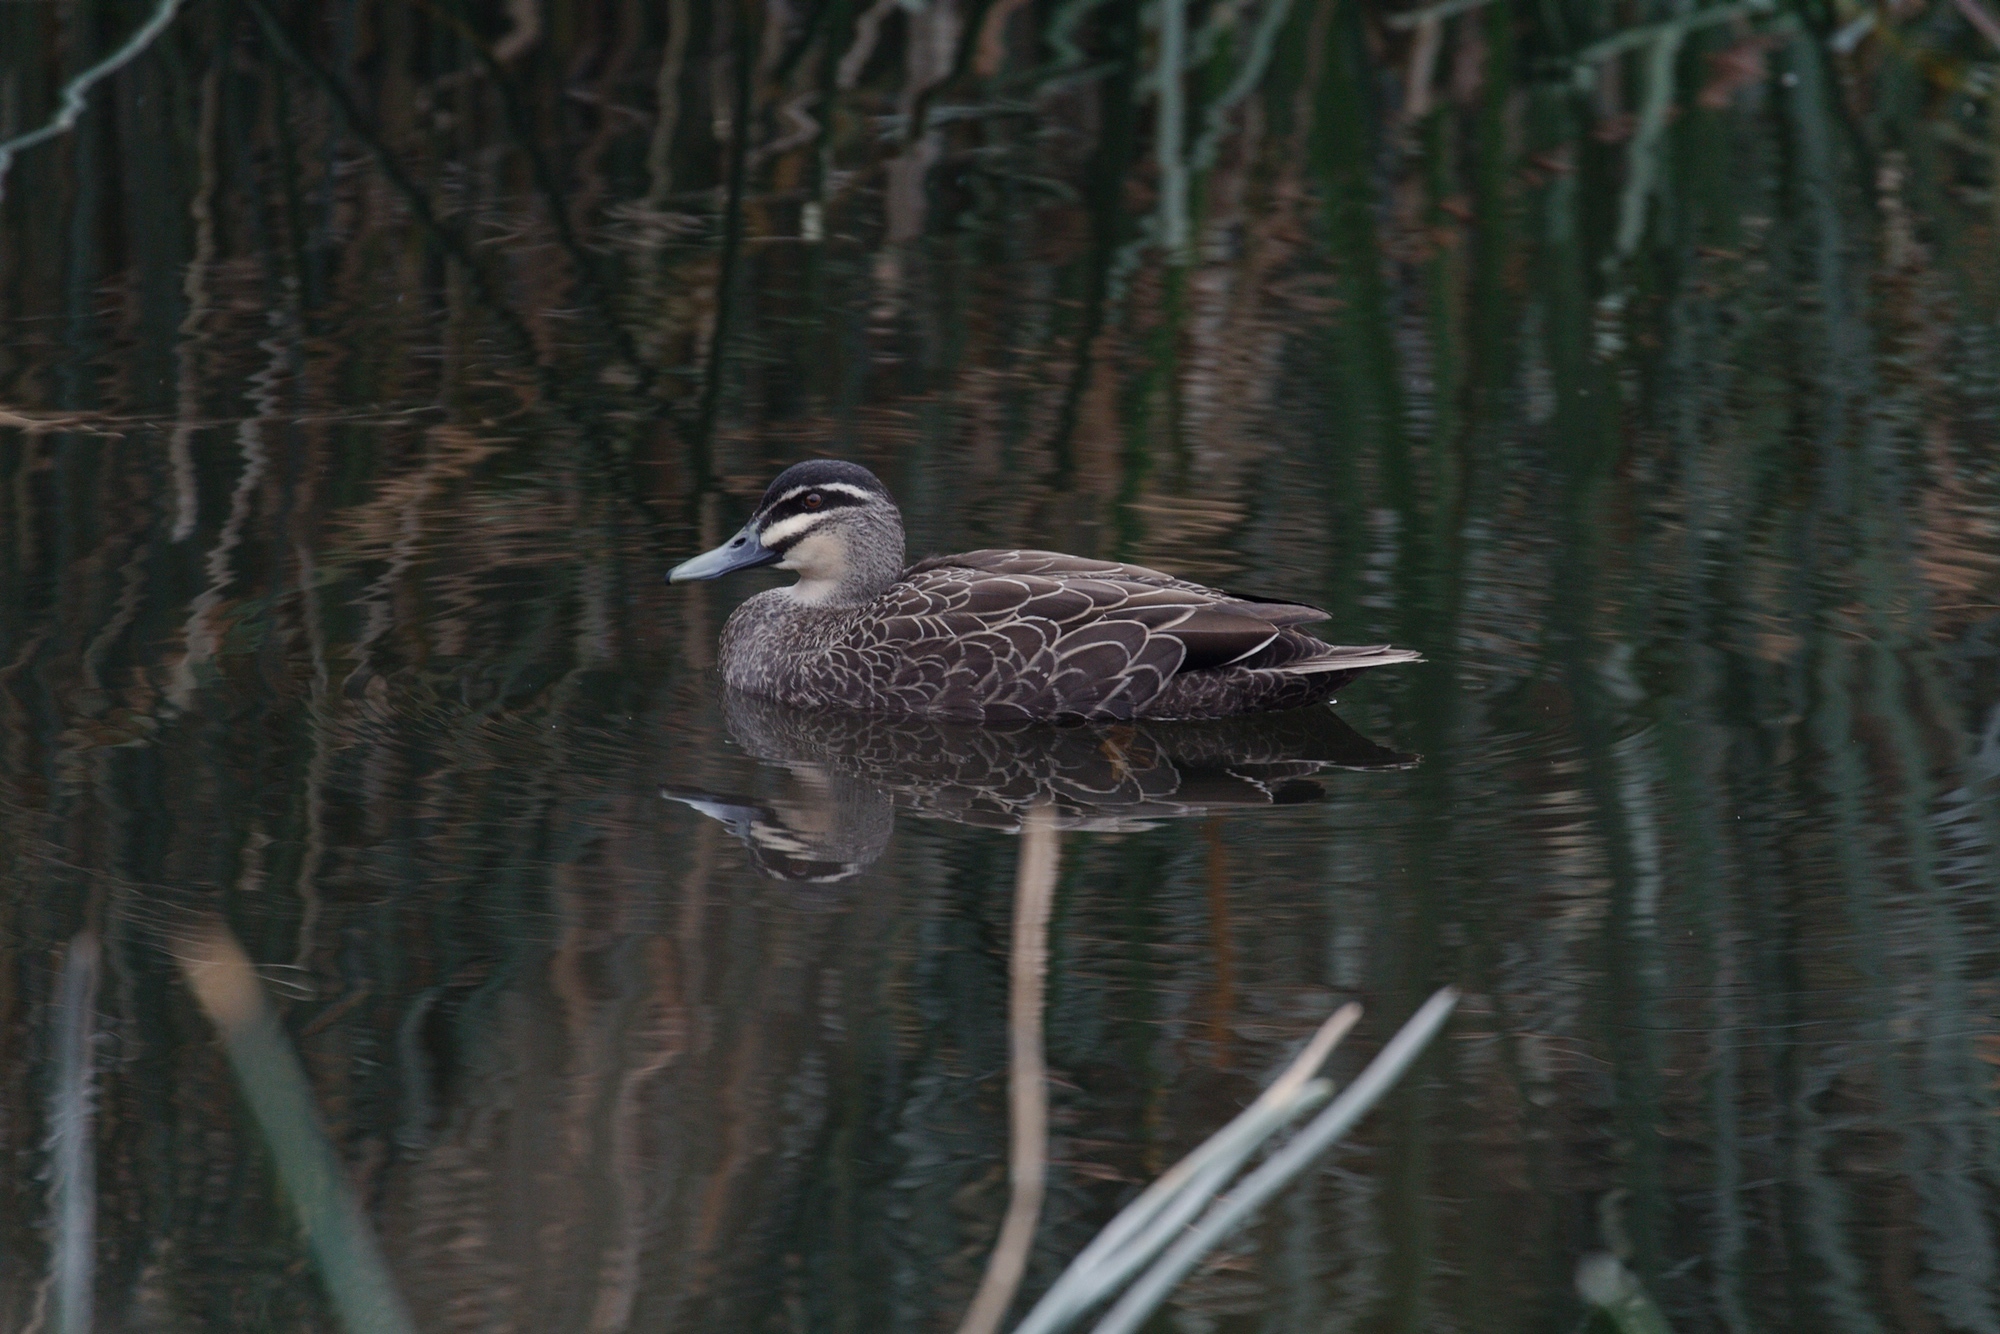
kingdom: Animalia
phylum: Chordata
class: Aves
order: Anseriformes
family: Anatidae
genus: Anas
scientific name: Anas superciliosa
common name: Pacific black duck
